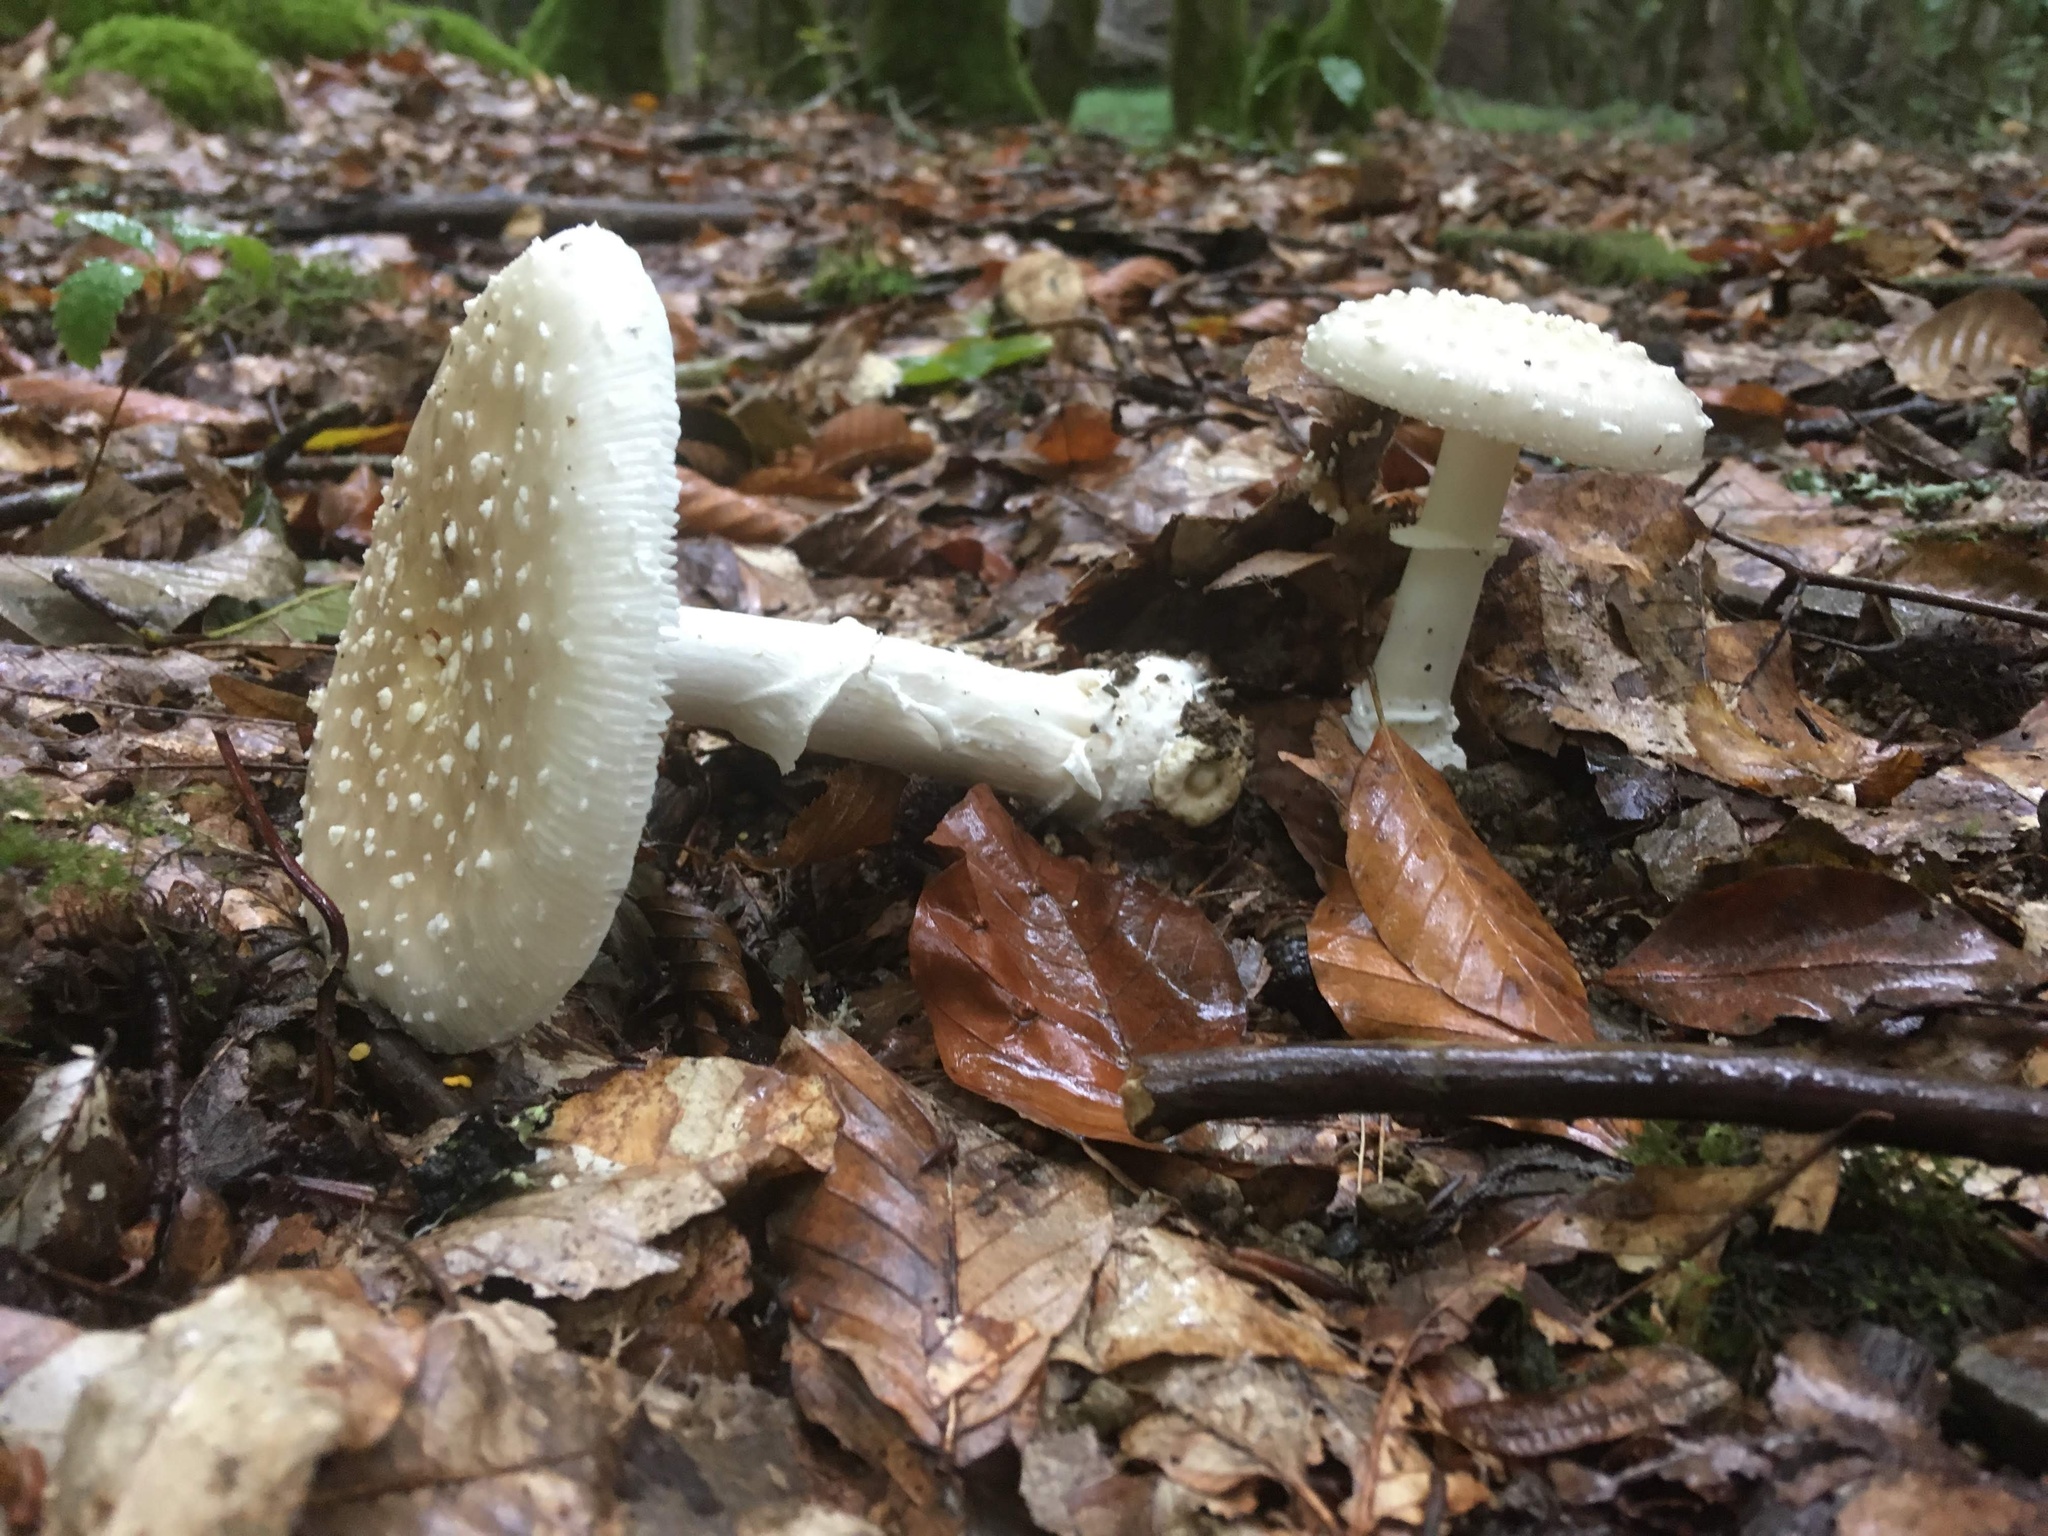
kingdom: Fungi
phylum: Basidiomycota
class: Agaricomycetes
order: Agaricales
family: Amanitaceae
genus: Amanita
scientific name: Amanita pantherina
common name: Panthercap
